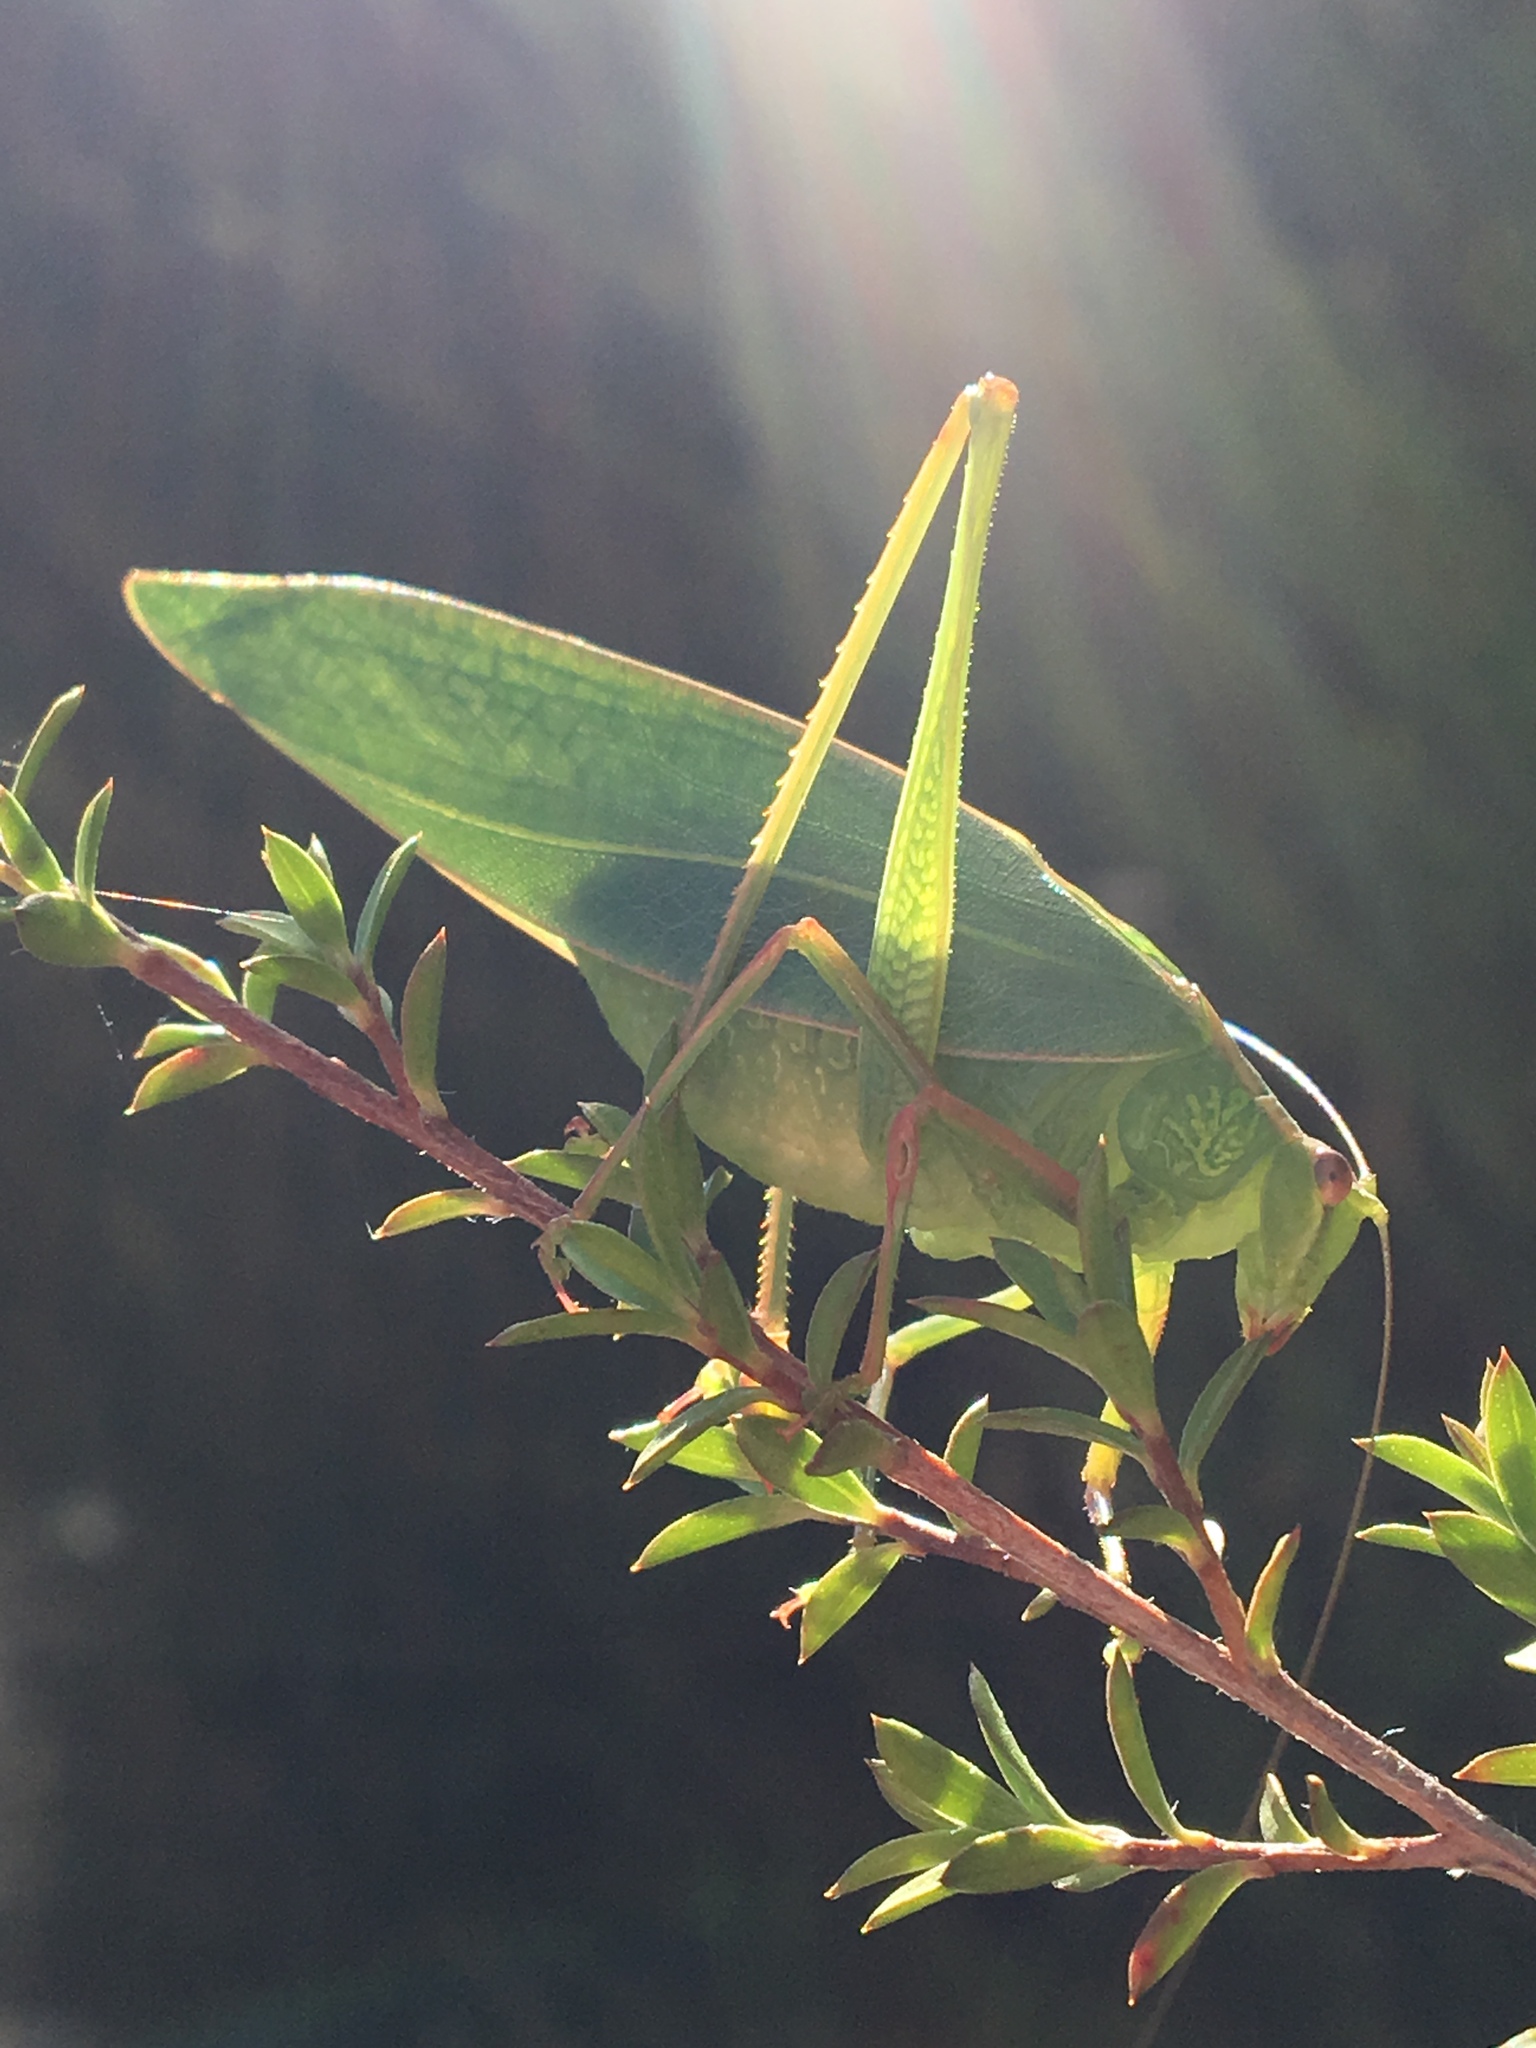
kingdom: Animalia
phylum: Arthropoda
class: Insecta
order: Orthoptera
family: Tettigoniidae
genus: Caedicia
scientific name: Caedicia simplex
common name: Common garden katydid
